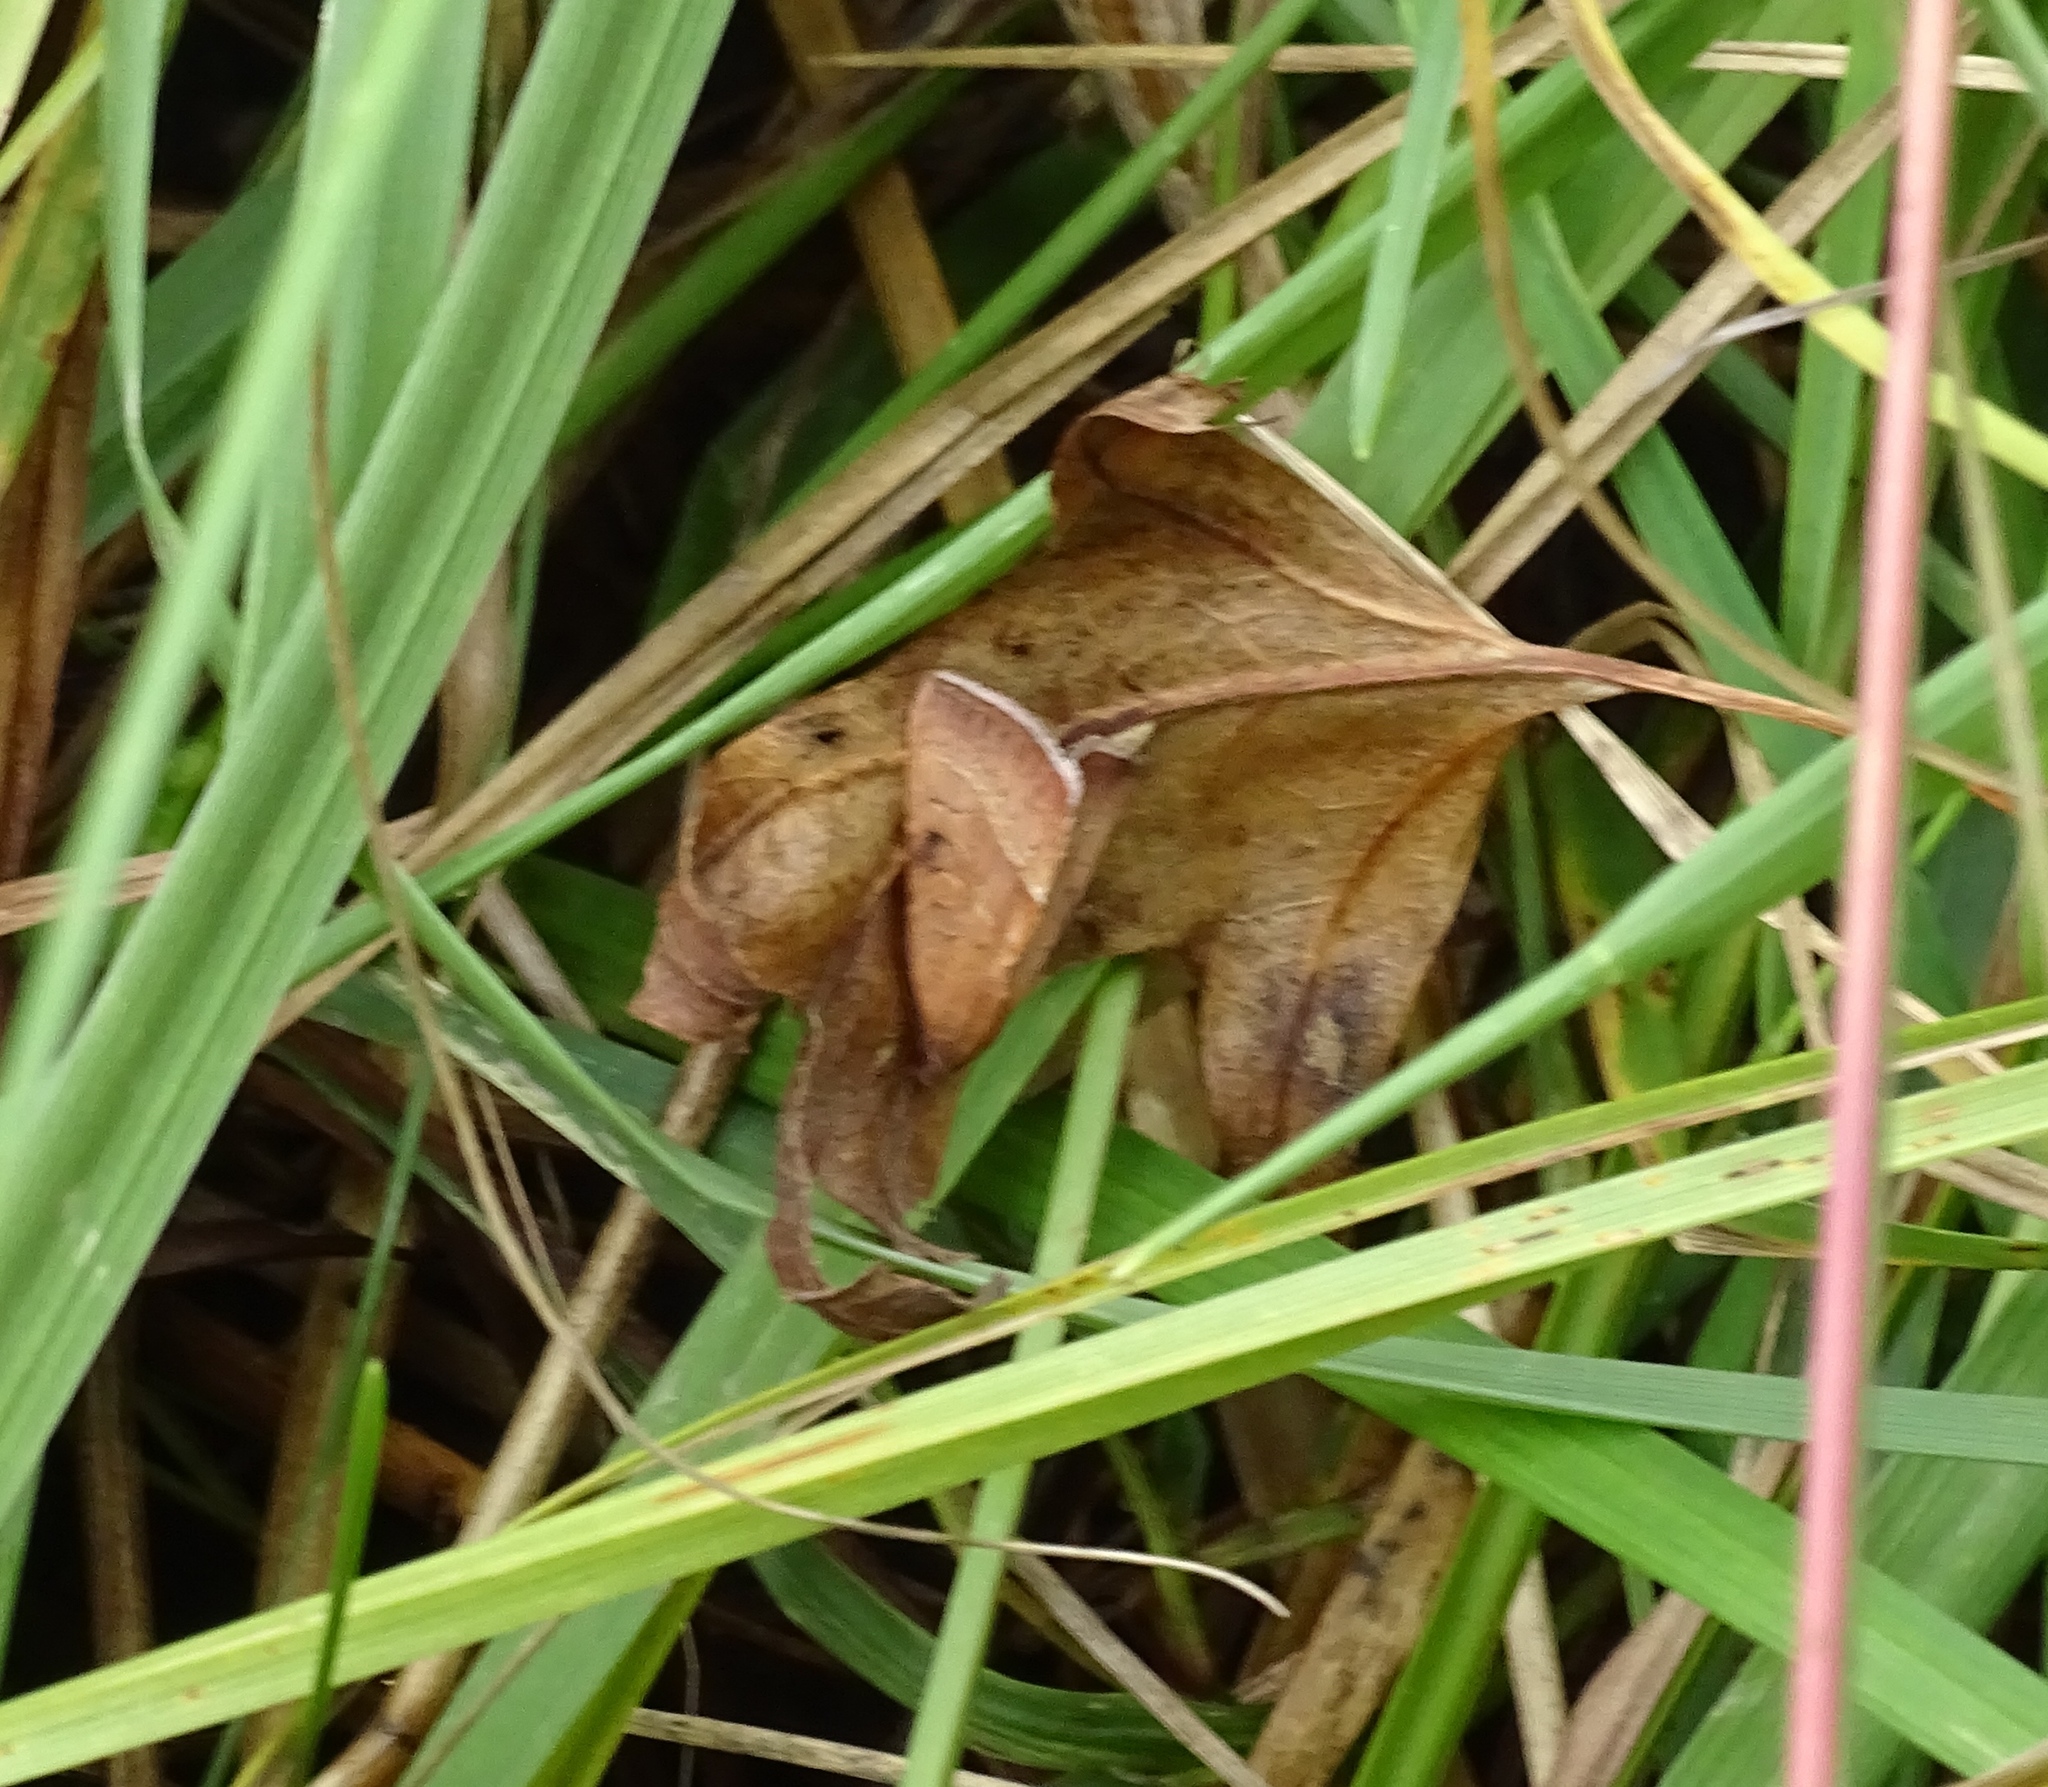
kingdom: Animalia
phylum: Arthropoda
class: Insecta
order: Lepidoptera
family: Noctuidae
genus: Galgula
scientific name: Galgula partita
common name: Wedgeling
